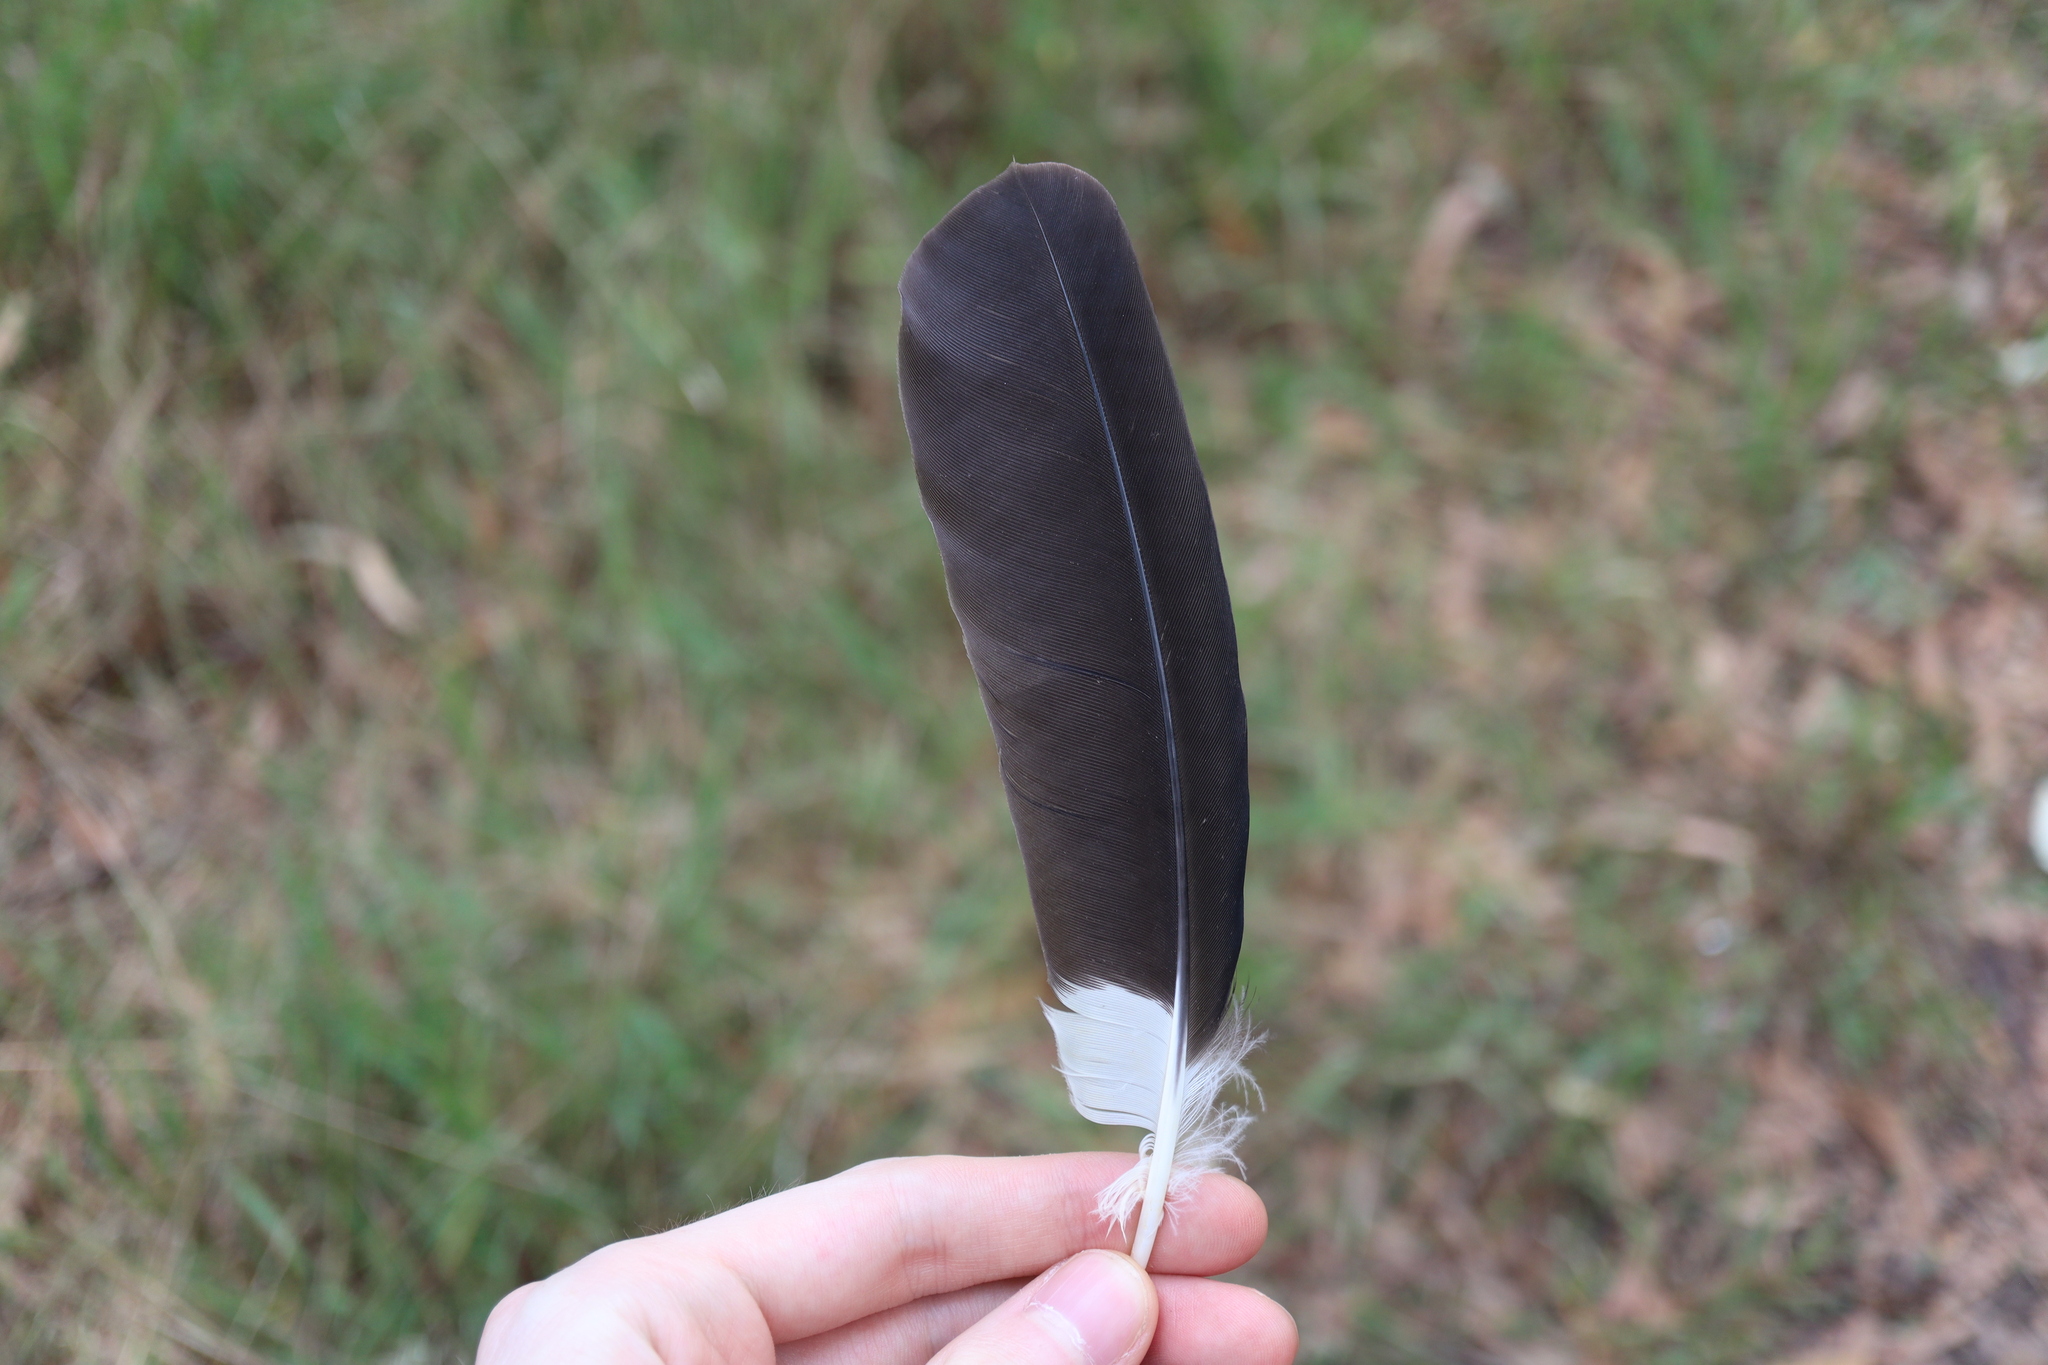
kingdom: Animalia
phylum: Chordata
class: Aves
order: Passeriformes
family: Cracticidae
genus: Strepera
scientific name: Strepera graculina
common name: Pied currawong
